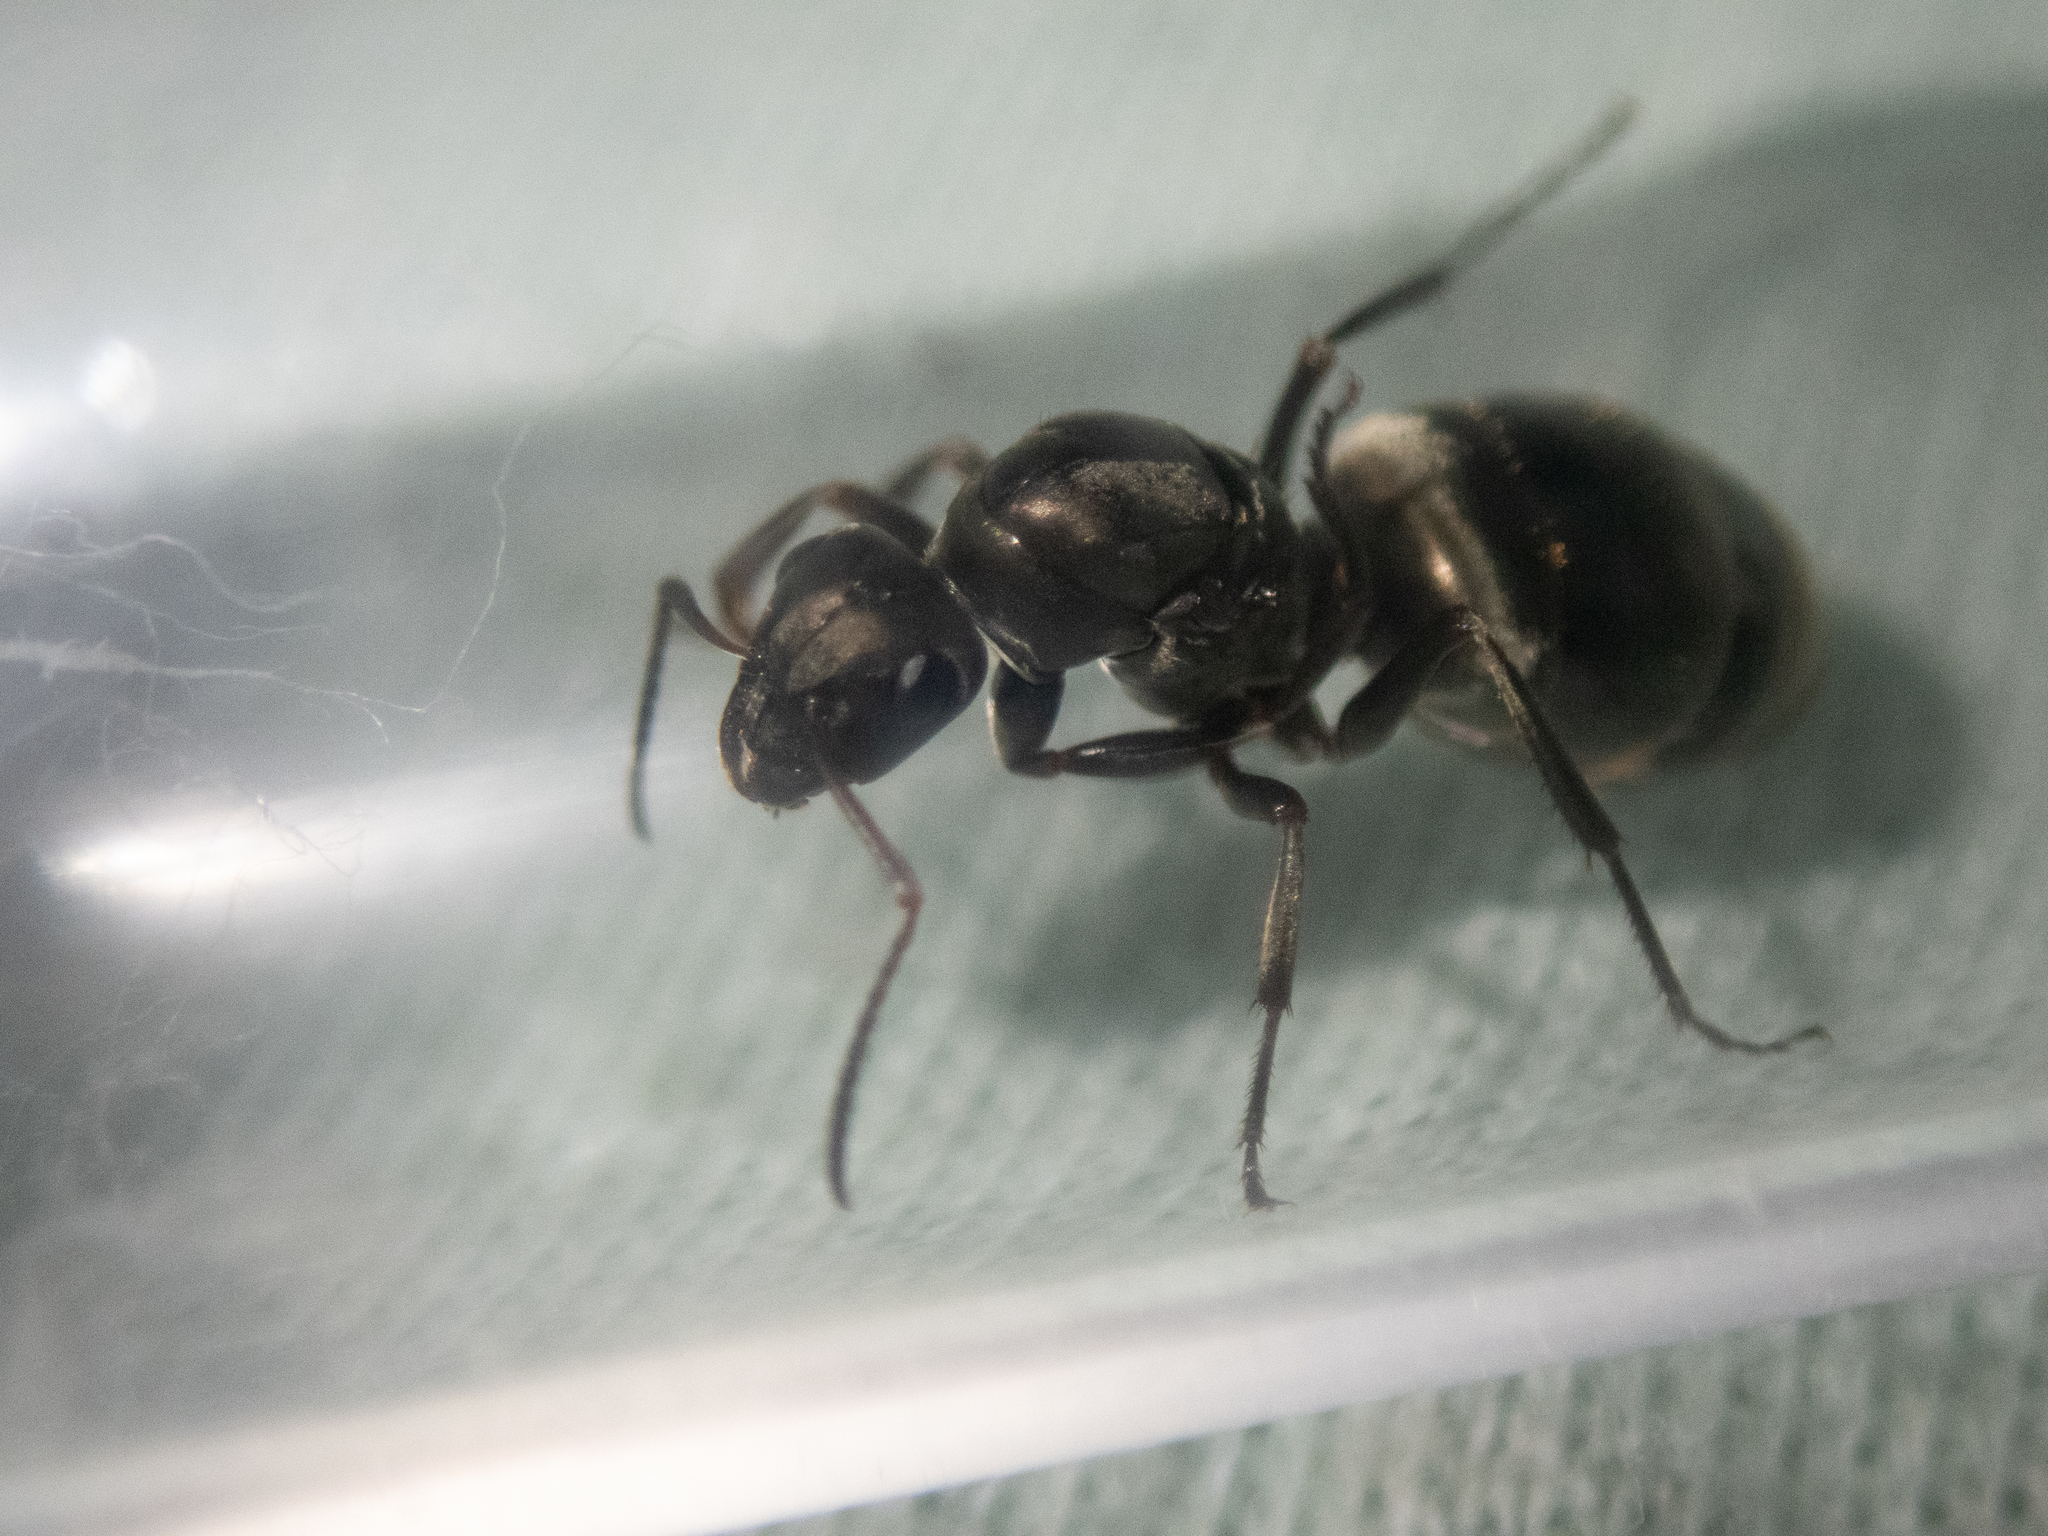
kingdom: Animalia
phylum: Arthropoda
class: Insecta
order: Hymenoptera
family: Formicidae
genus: Formica
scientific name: Formica subsericea
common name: Silky field ant
